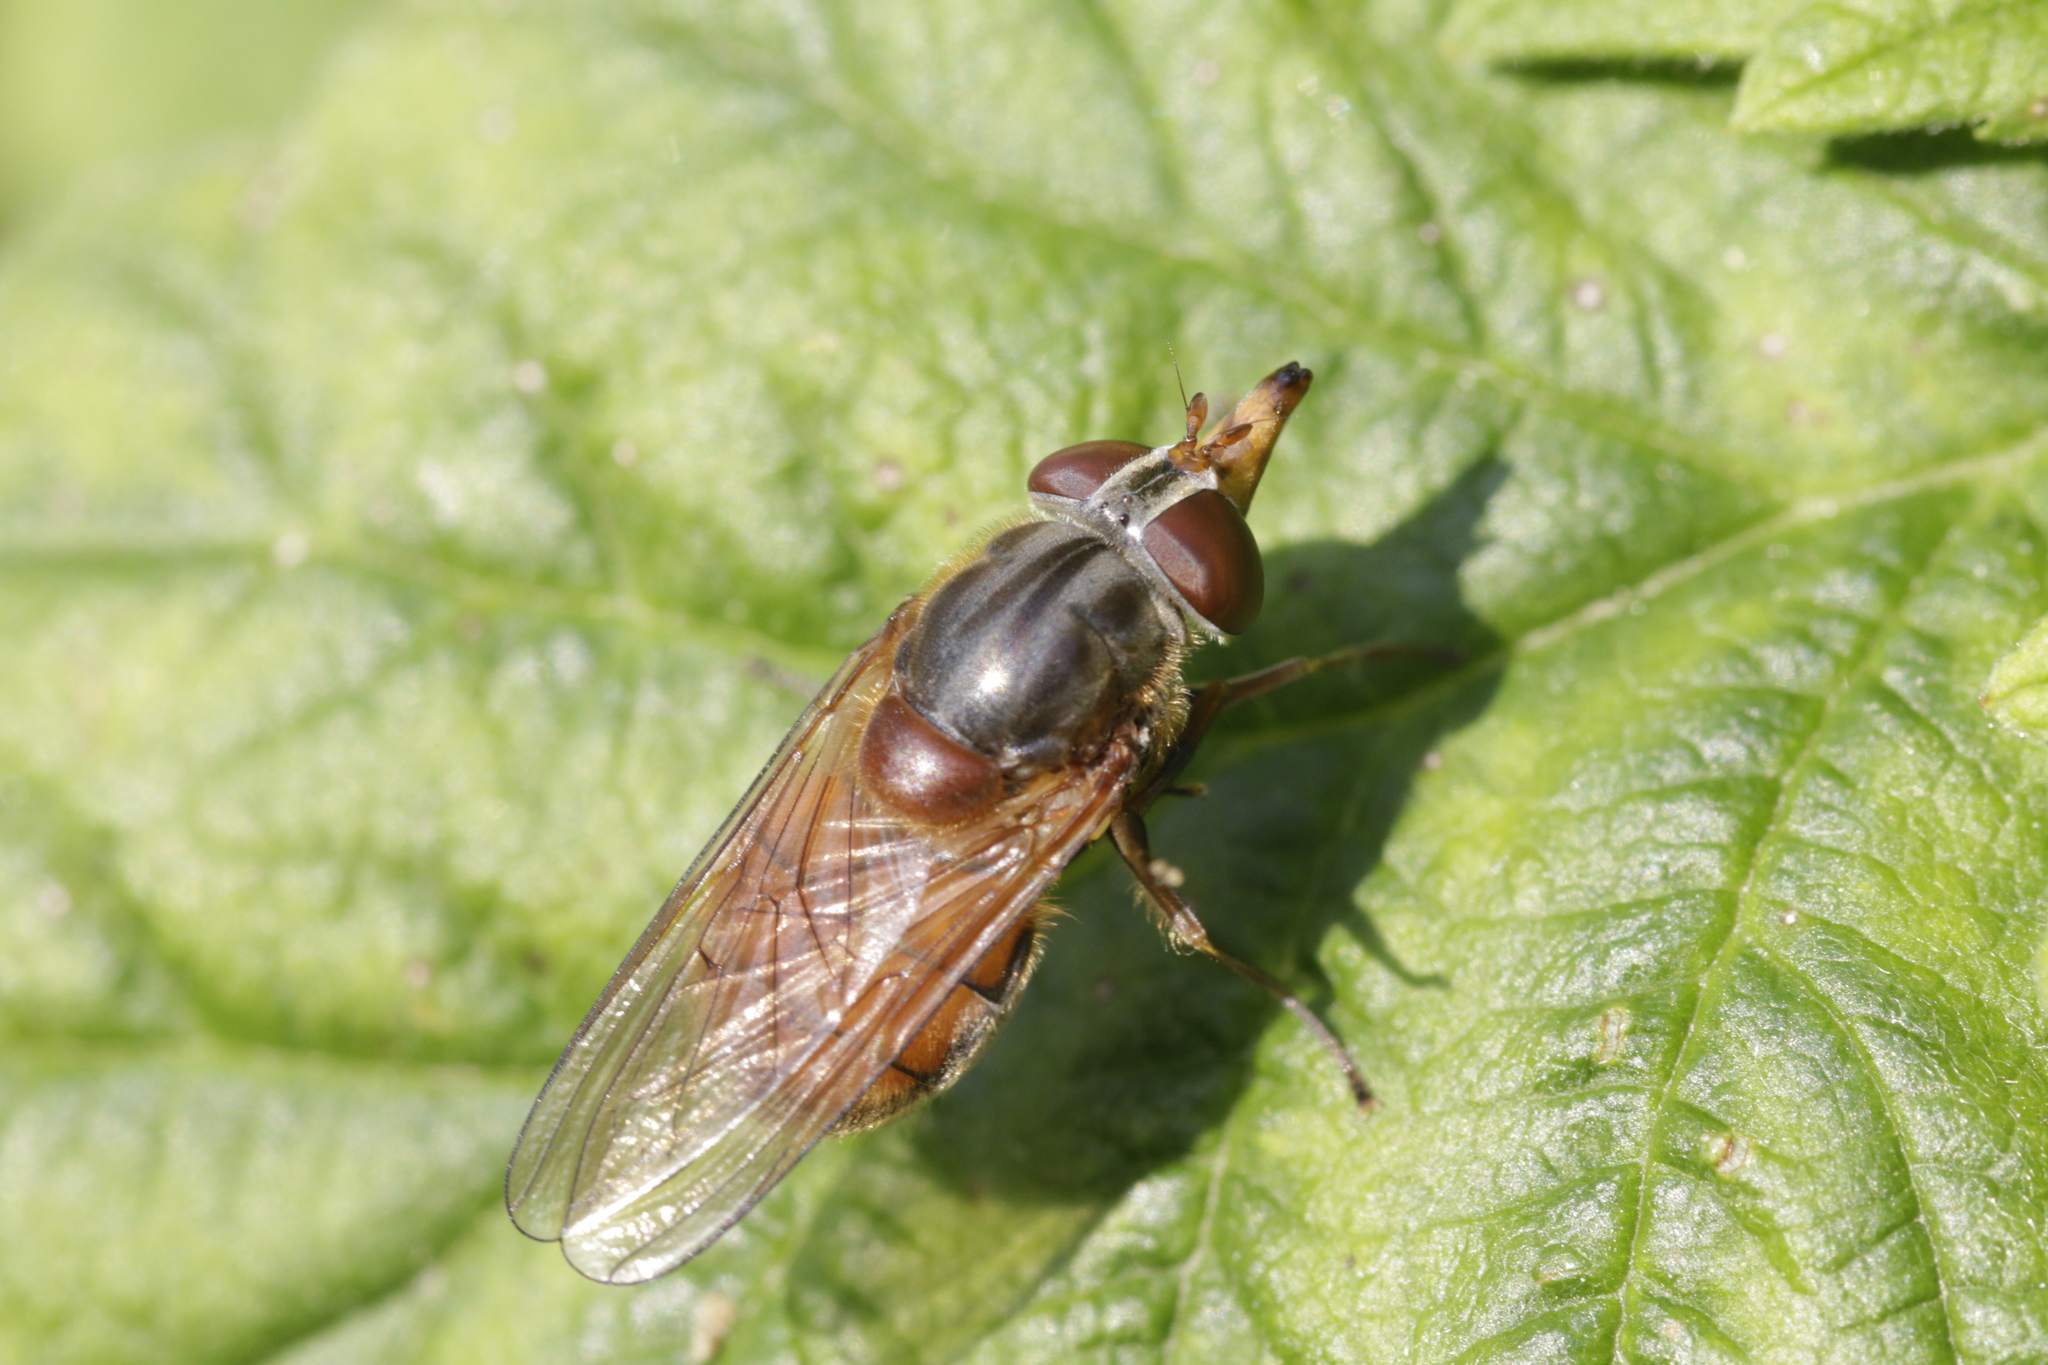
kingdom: Animalia
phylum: Arthropoda
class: Insecta
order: Diptera
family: Syrphidae
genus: Rhingia
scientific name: Rhingia campestris
